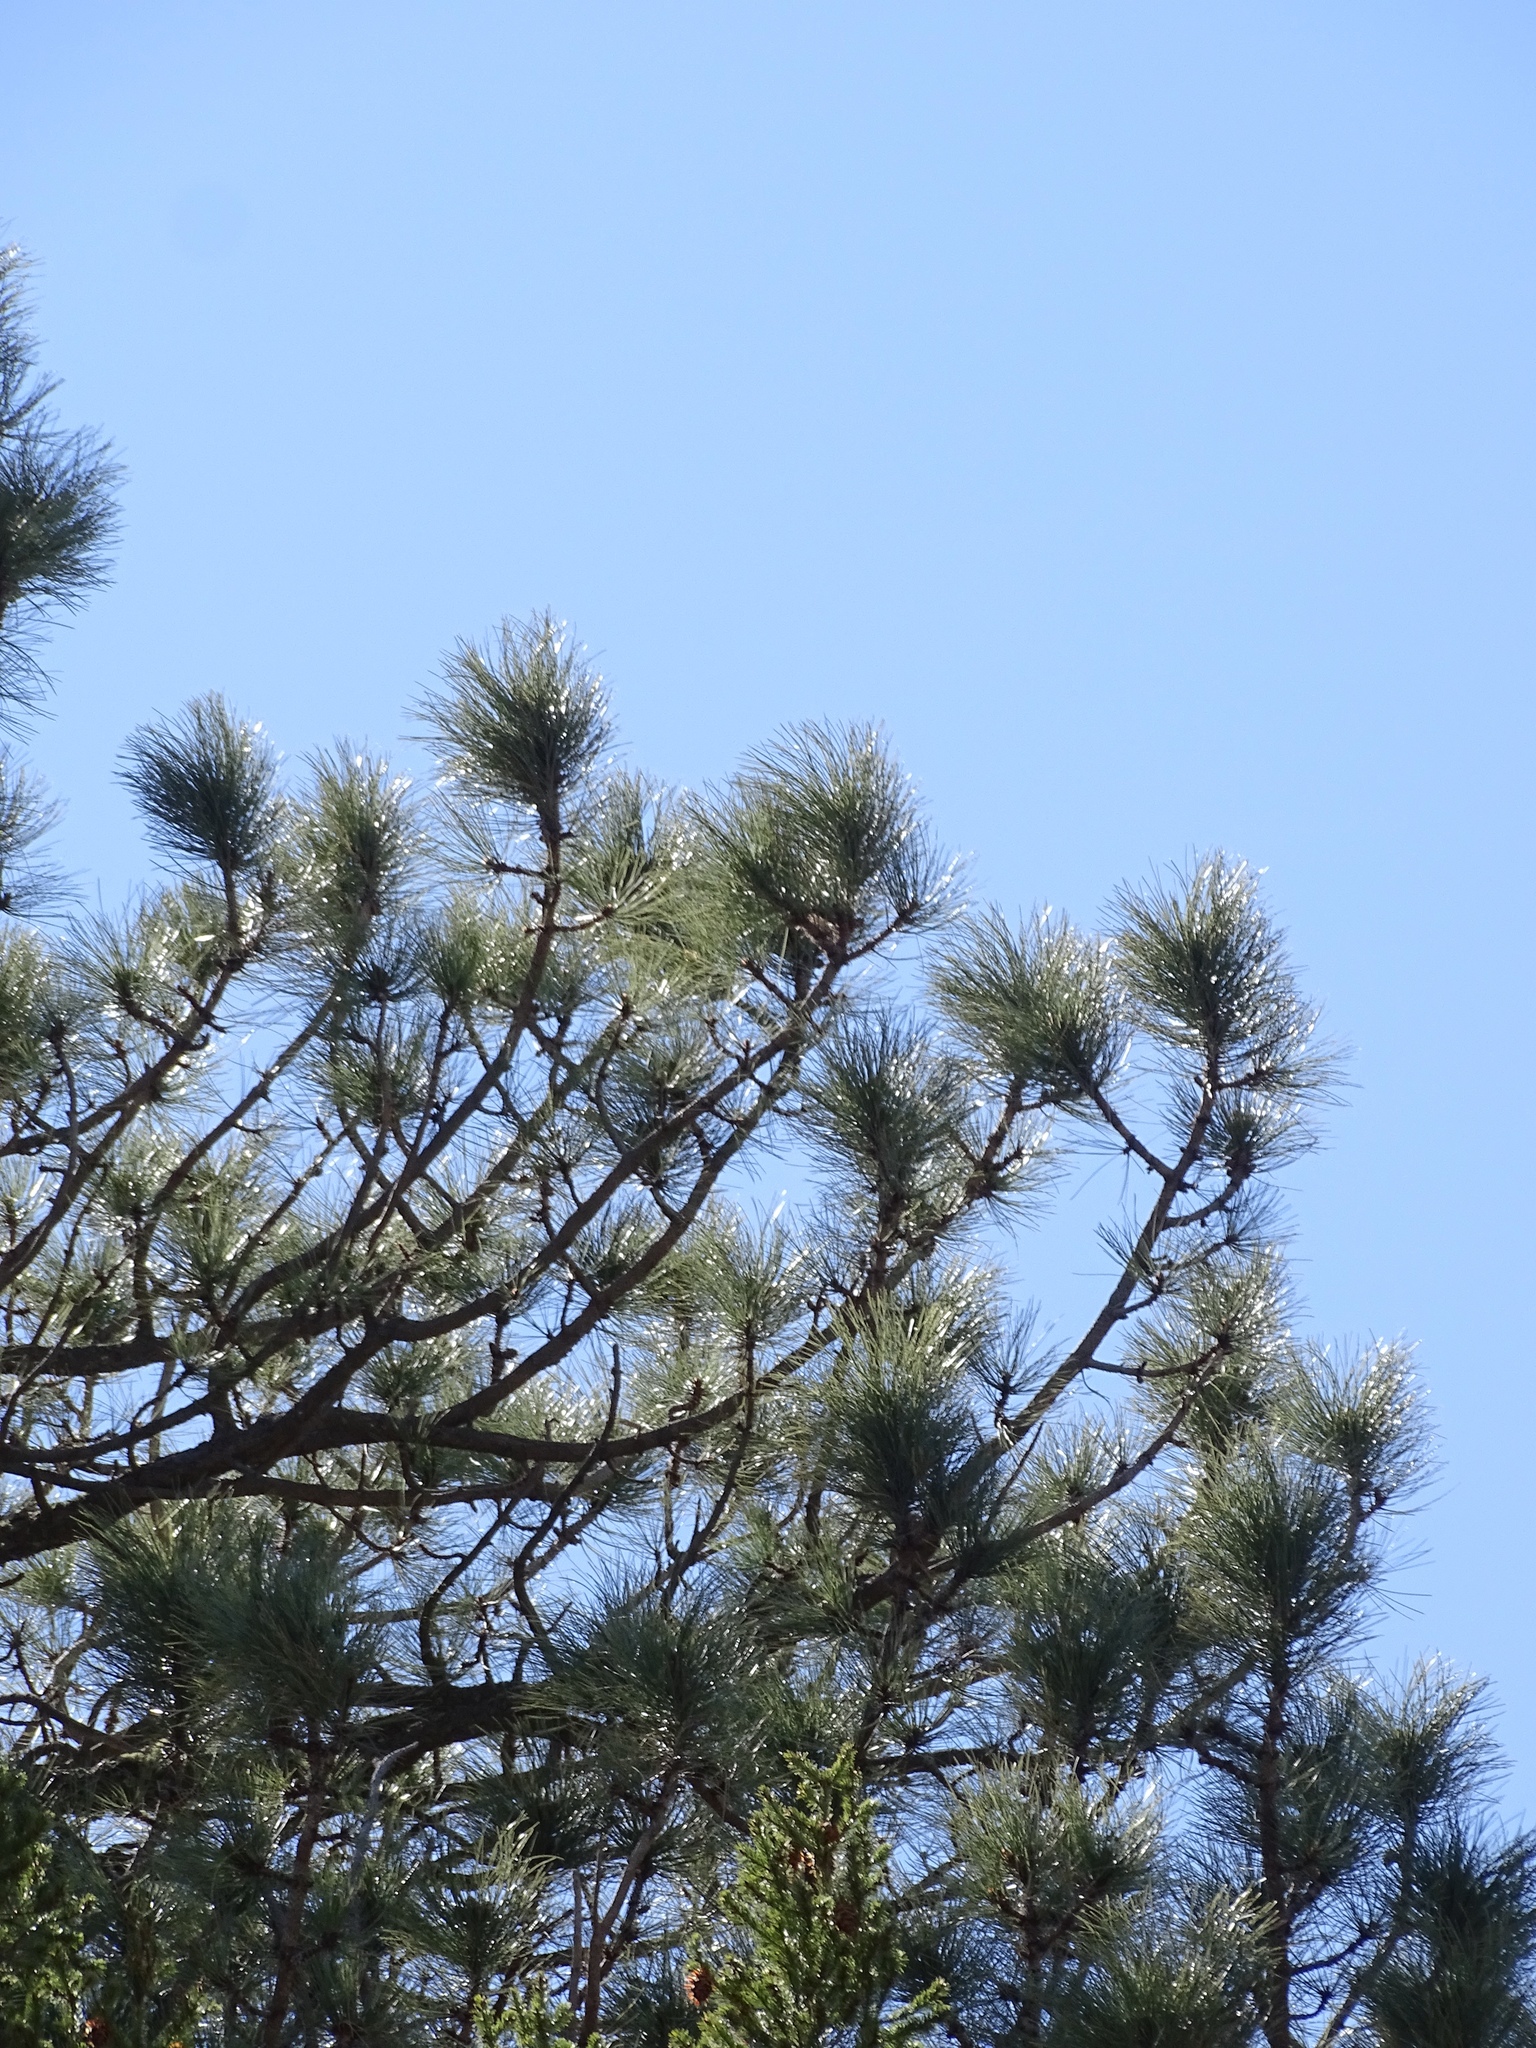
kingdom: Plantae
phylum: Tracheophyta
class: Pinopsida
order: Pinales
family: Pinaceae
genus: Pinus
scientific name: Pinus ponderosa
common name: Western yellow-pine
